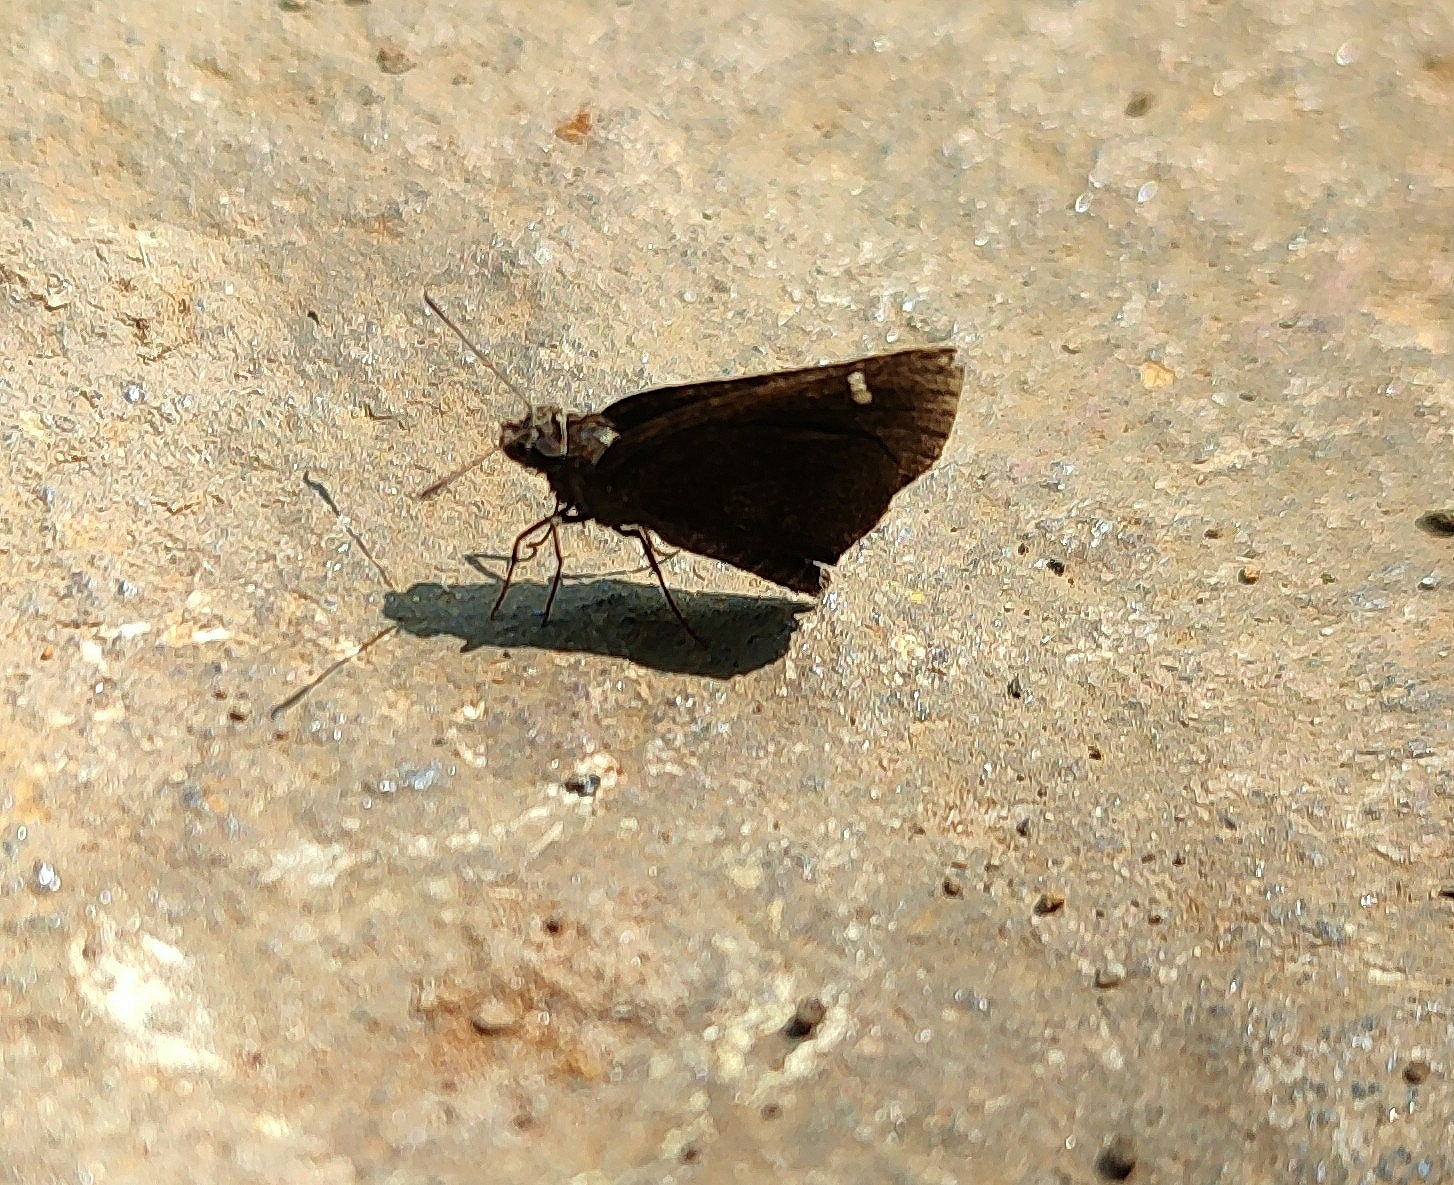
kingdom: Animalia
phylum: Arthropoda
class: Insecta
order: Lepidoptera
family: Hesperiidae
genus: Arnetta
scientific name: Arnetta mercara
